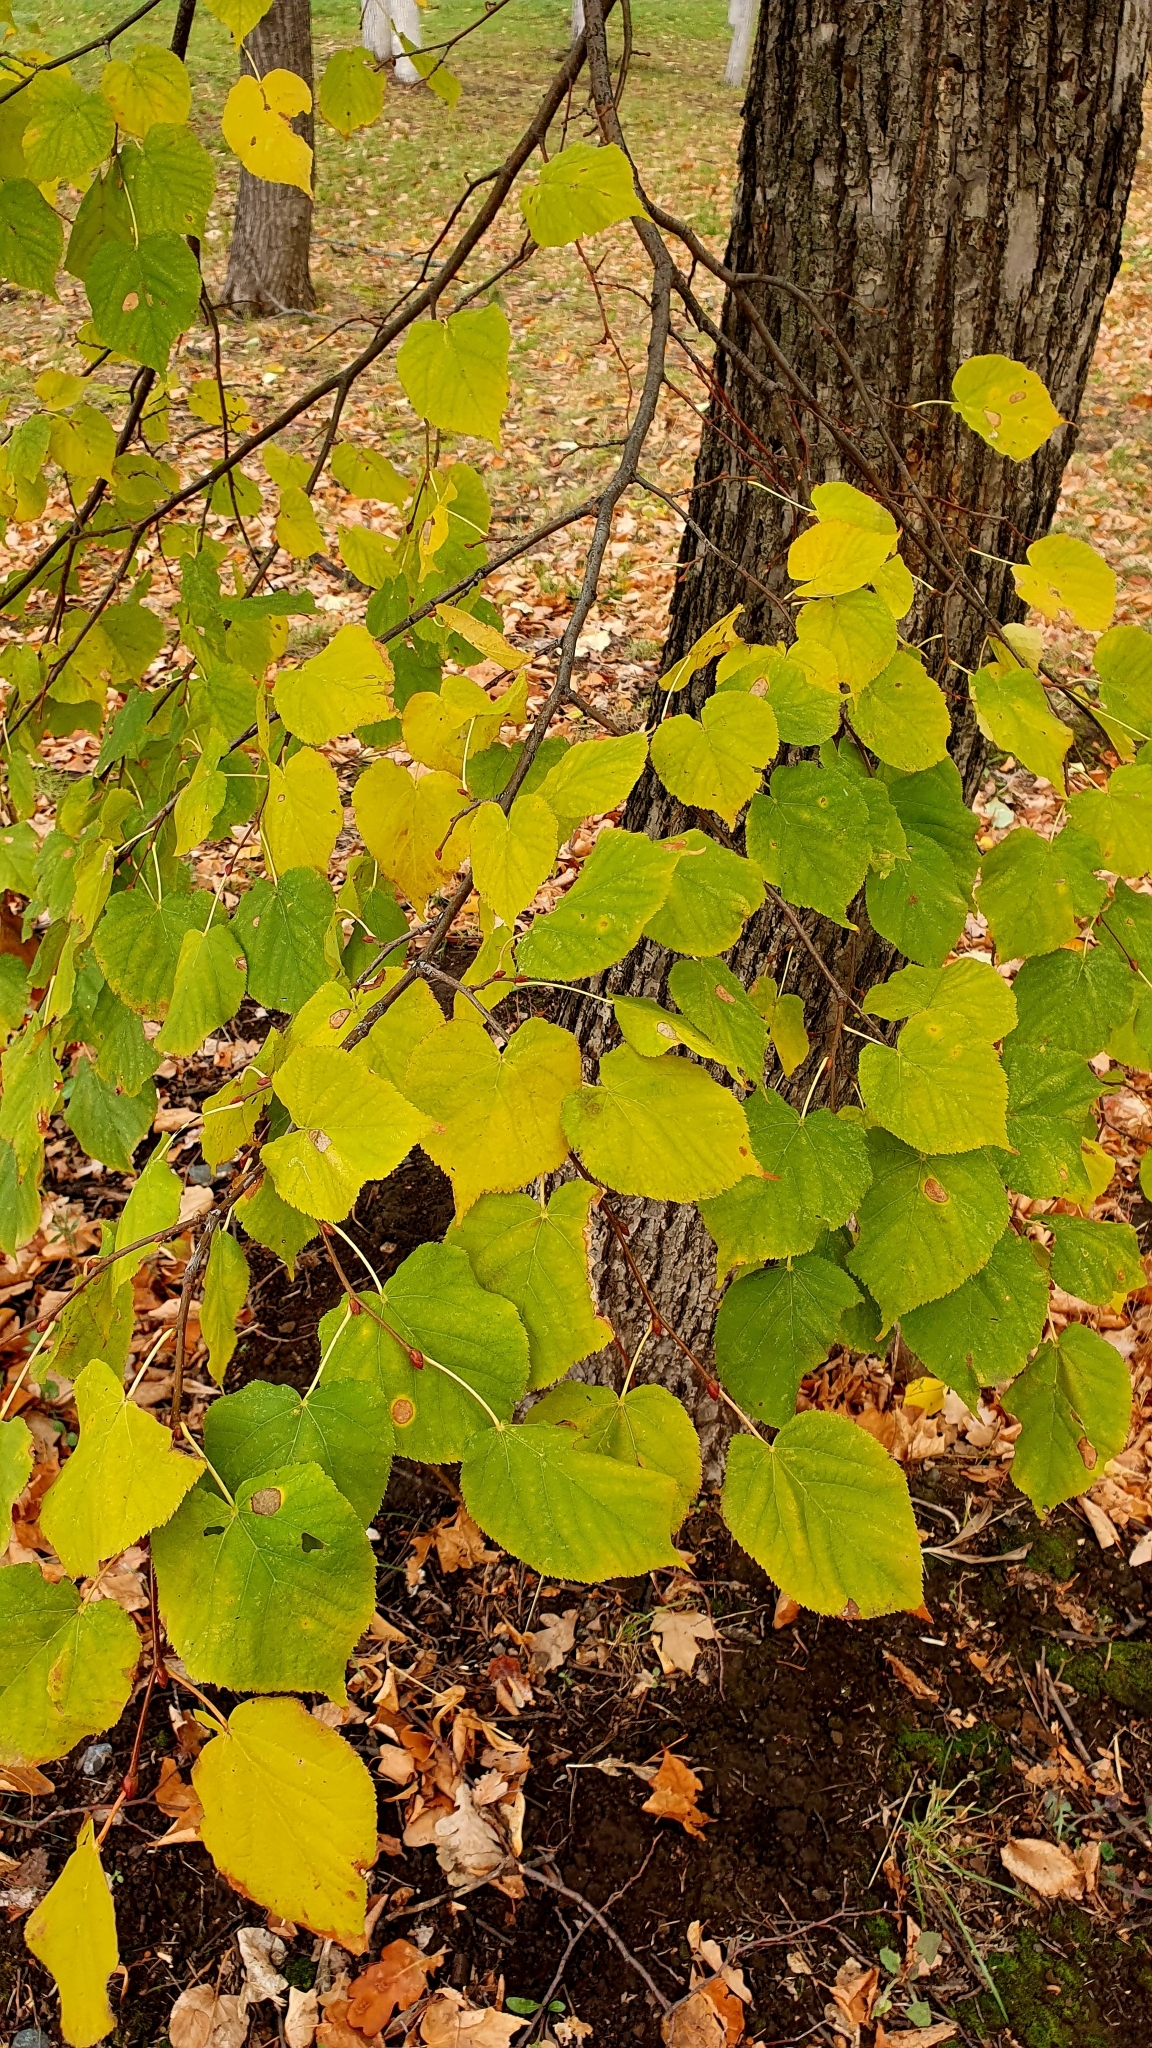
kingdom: Plantae
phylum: Tracheophyta
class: Magnoliopsida
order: Malvales
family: Malvaceae
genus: Tilia
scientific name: Tilia cordata
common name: Small-leaved lime
